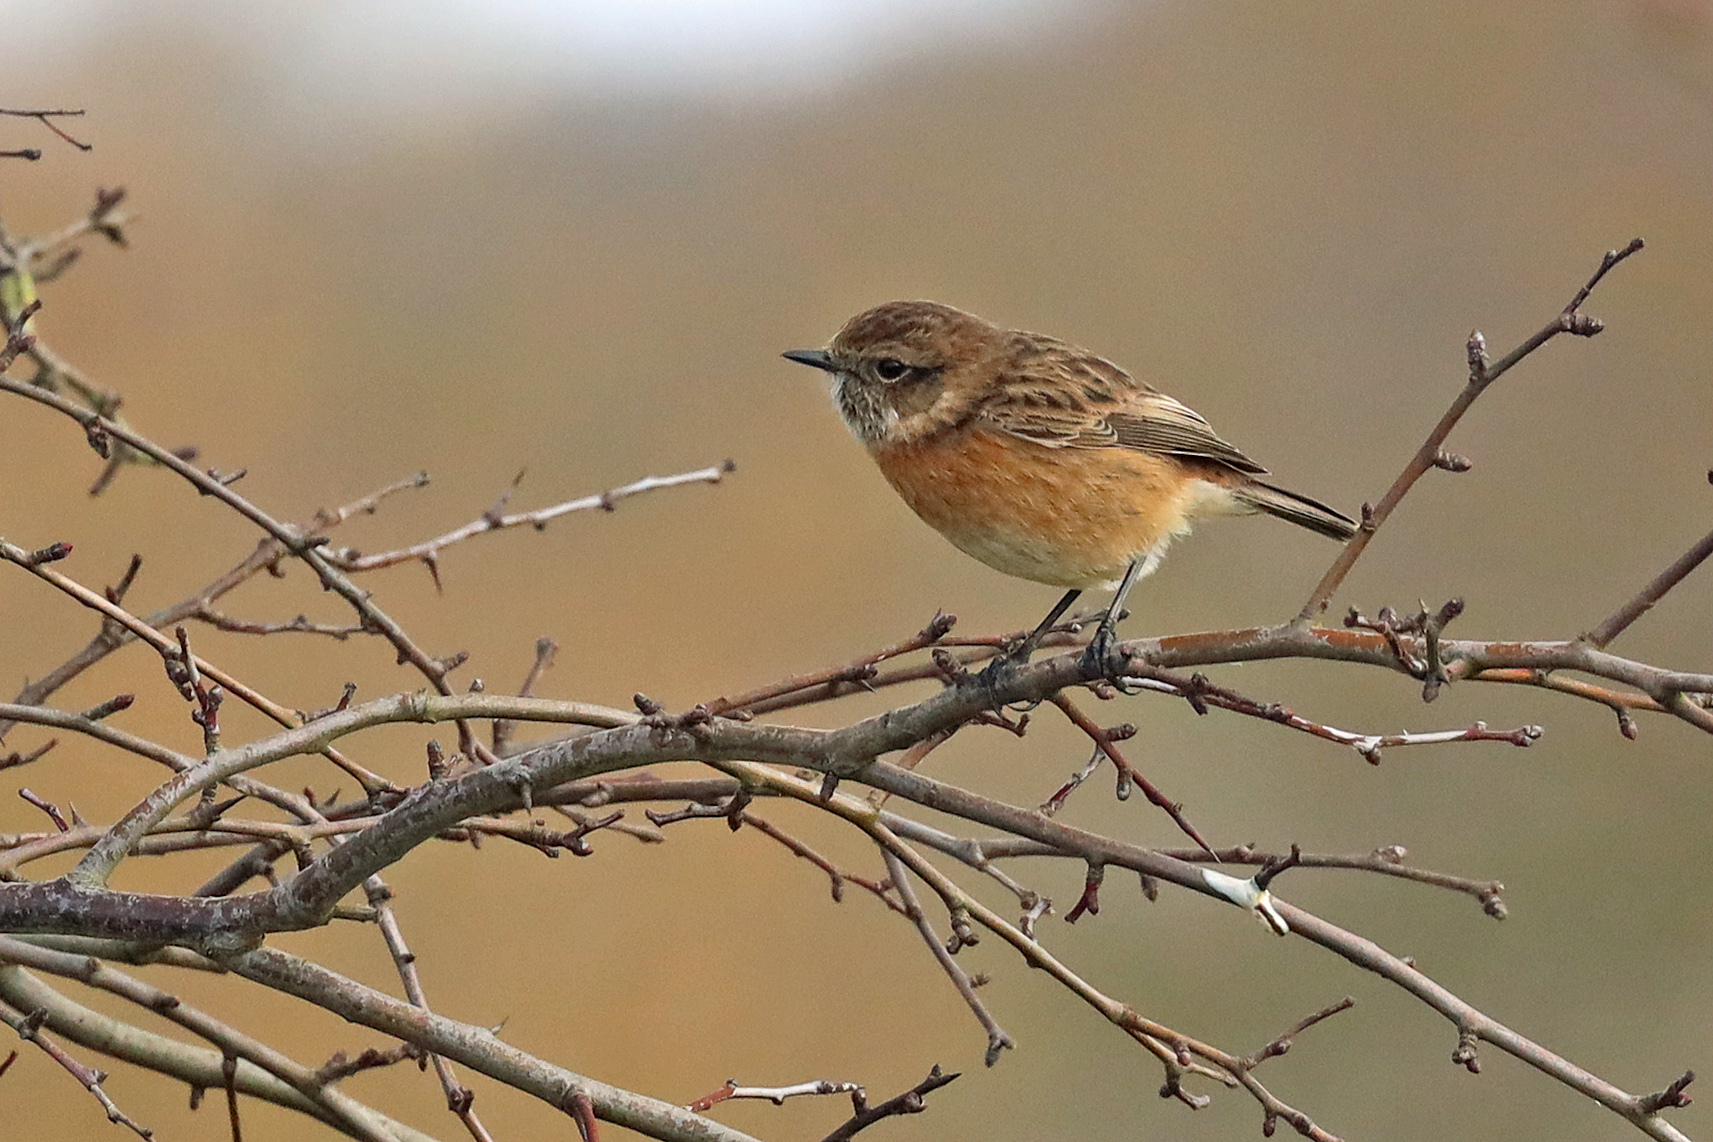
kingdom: Animalia
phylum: Chordata
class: Aves
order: Passeriformes
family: Muscicapidae
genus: Saxicola
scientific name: Saxicola rubicola
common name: European stonechat
